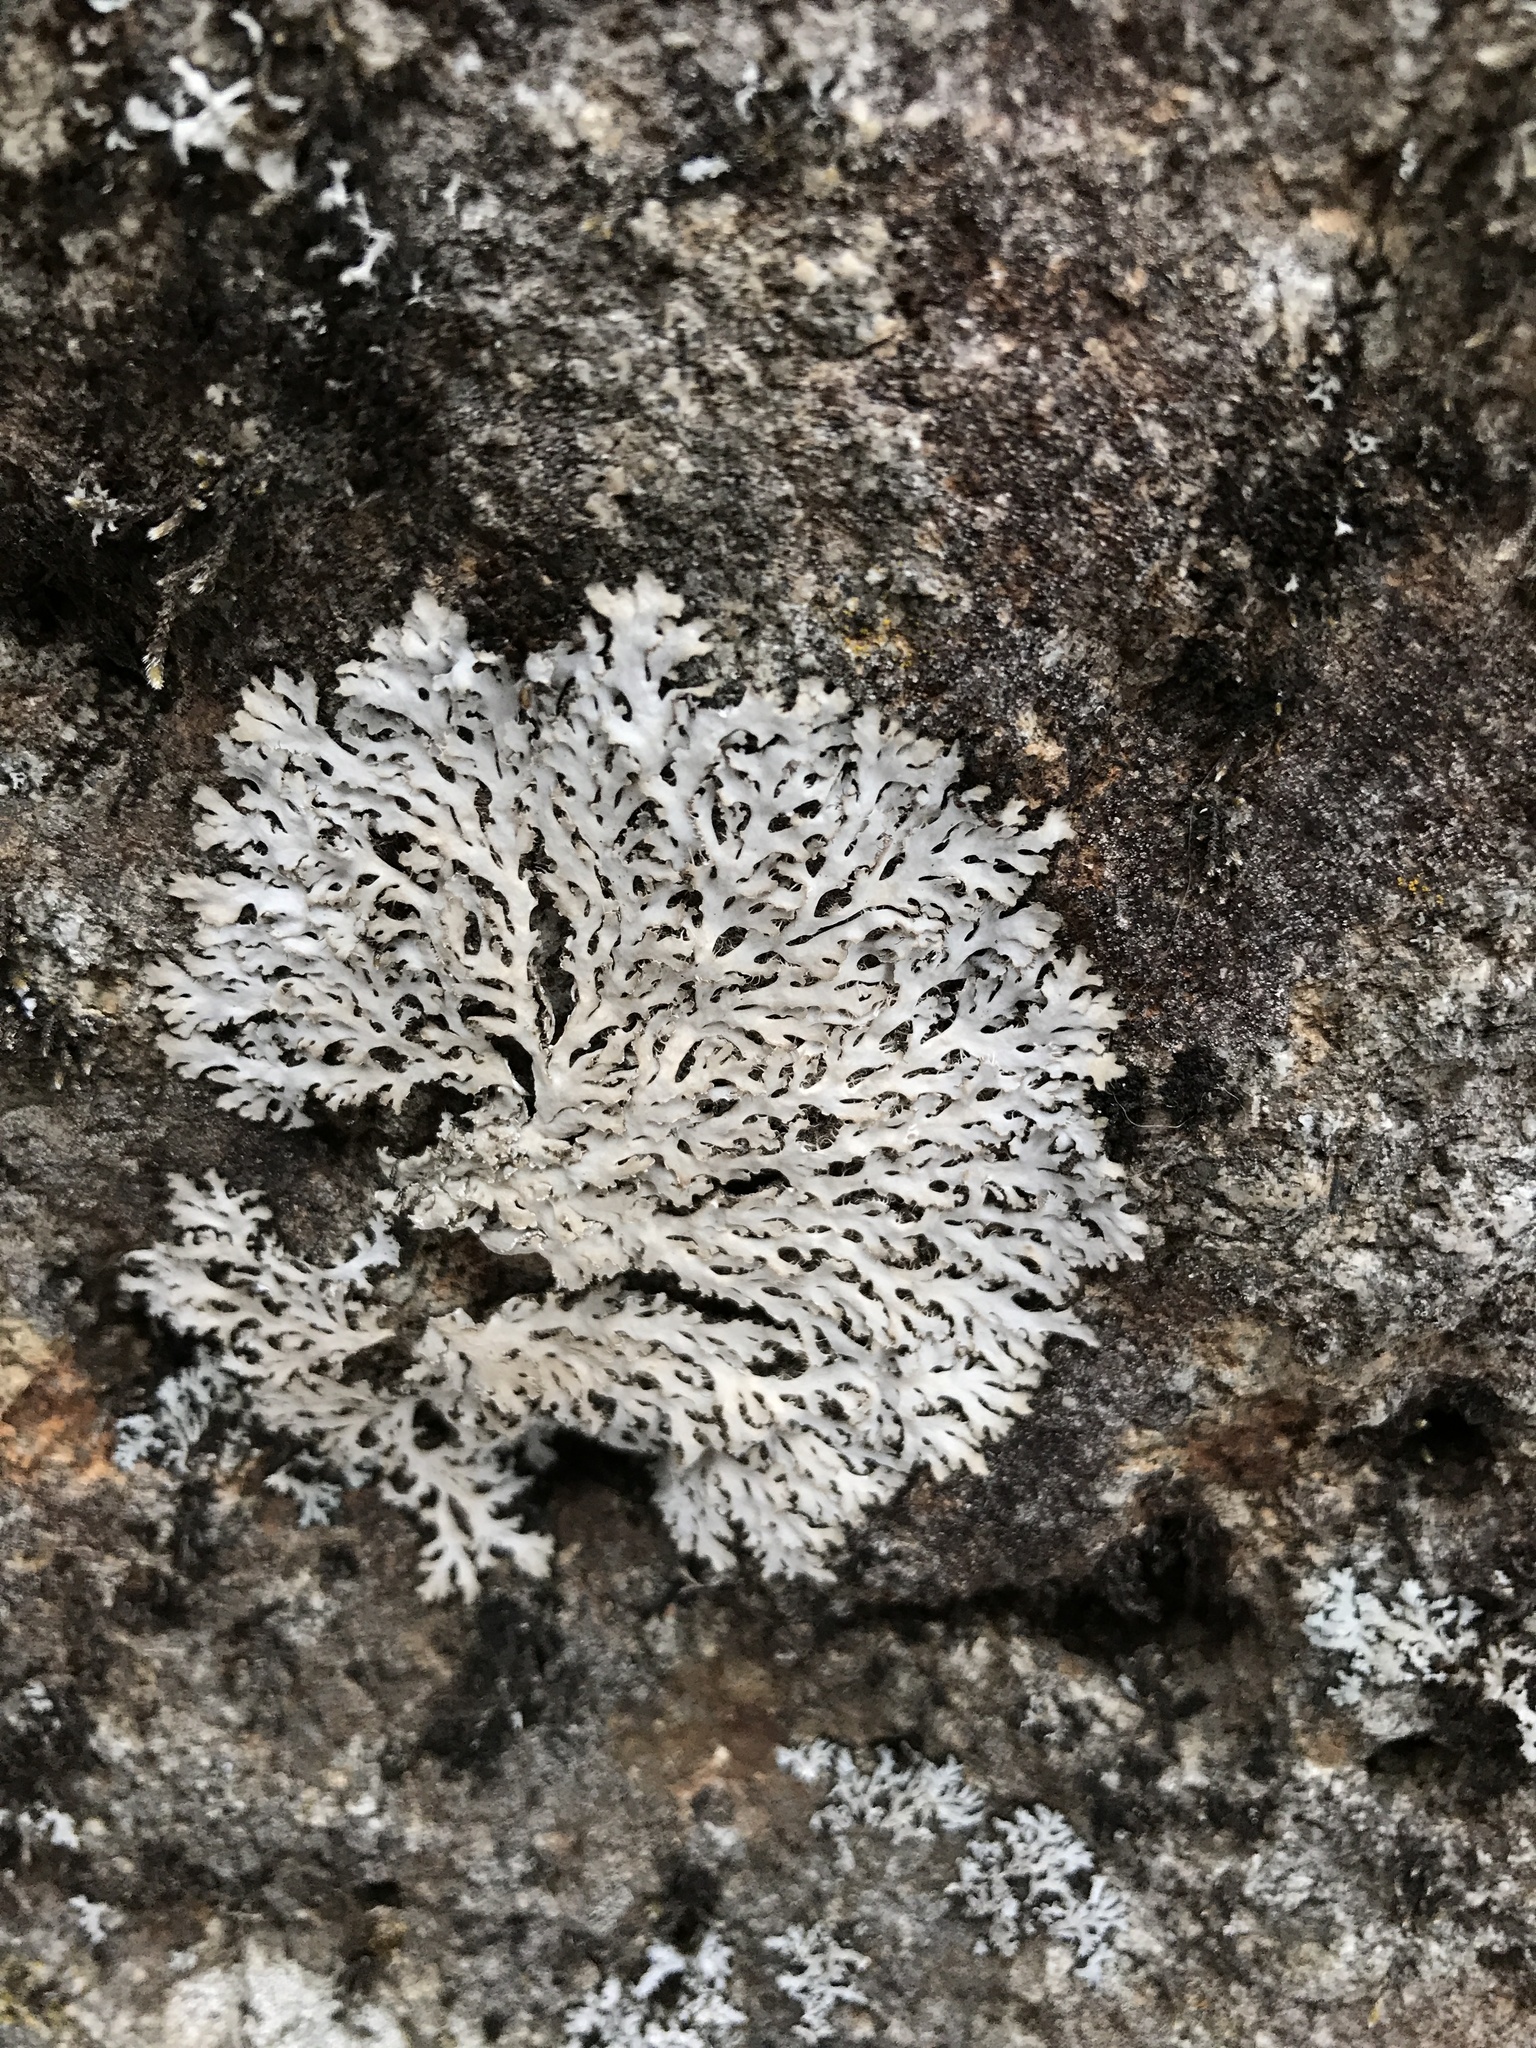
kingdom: Fungi
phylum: Ascomycota
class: Lecanoromycetes
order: Caliciales
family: Physciaceae
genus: Heterodermia
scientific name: Heterodermia speciosa
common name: Powdered fringe lichen
